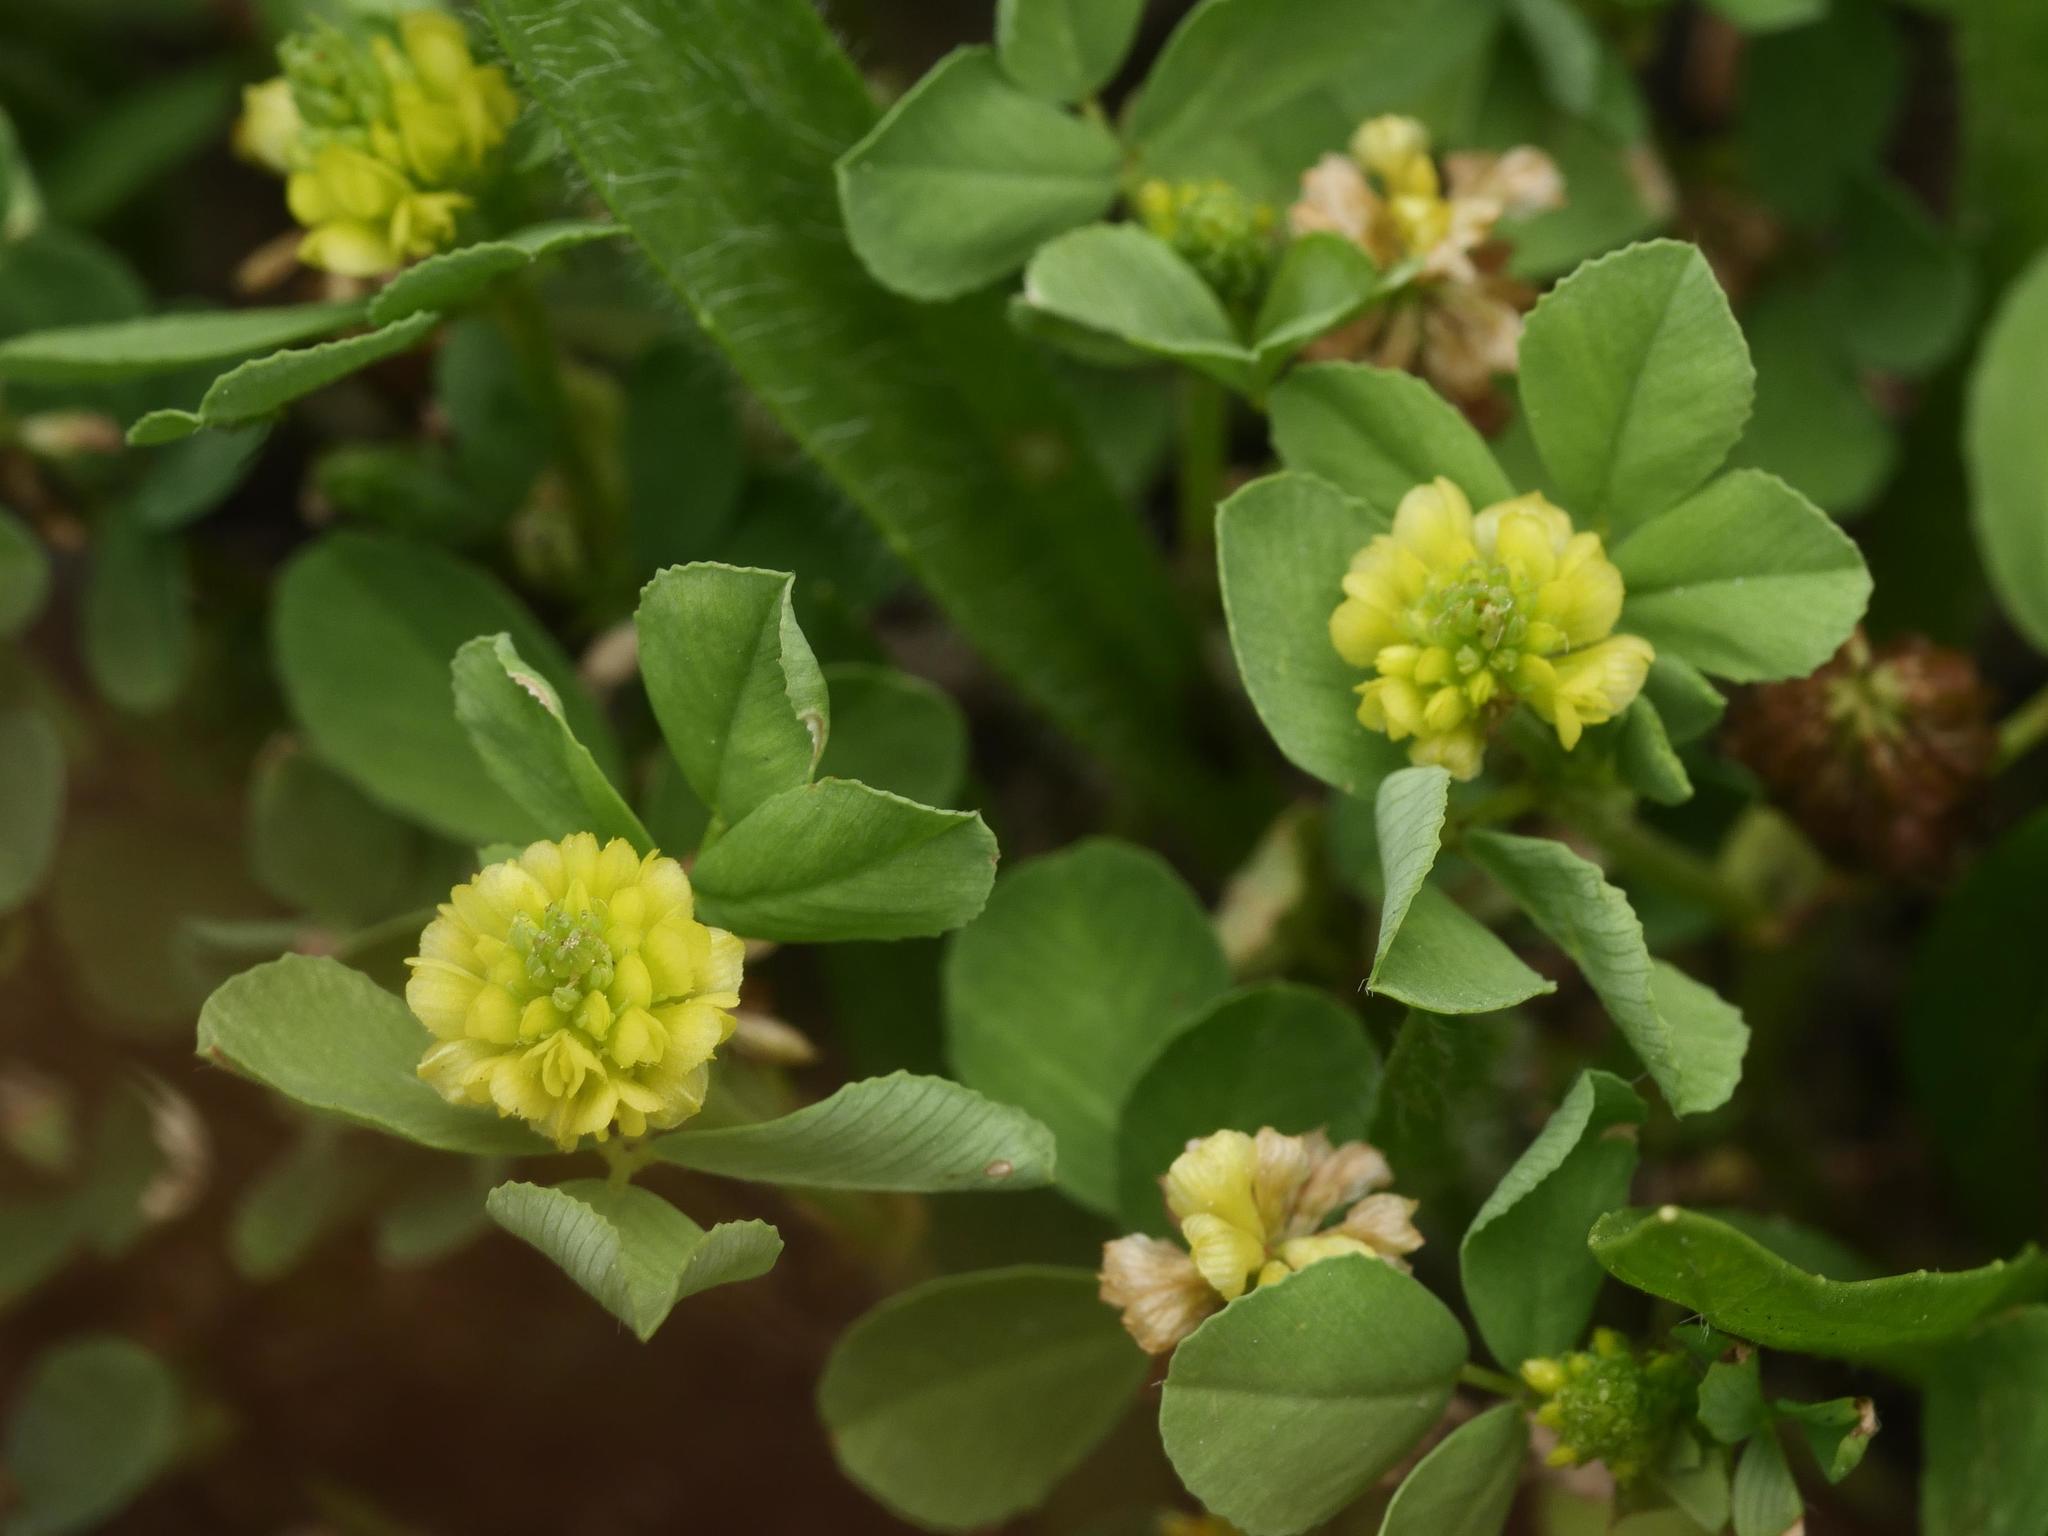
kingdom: Plantae
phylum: Tracheophyta
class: Magnoliopsida
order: Fabales
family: Fabaceae
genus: Trifolium
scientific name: Trifolium campestre
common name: Field clover
